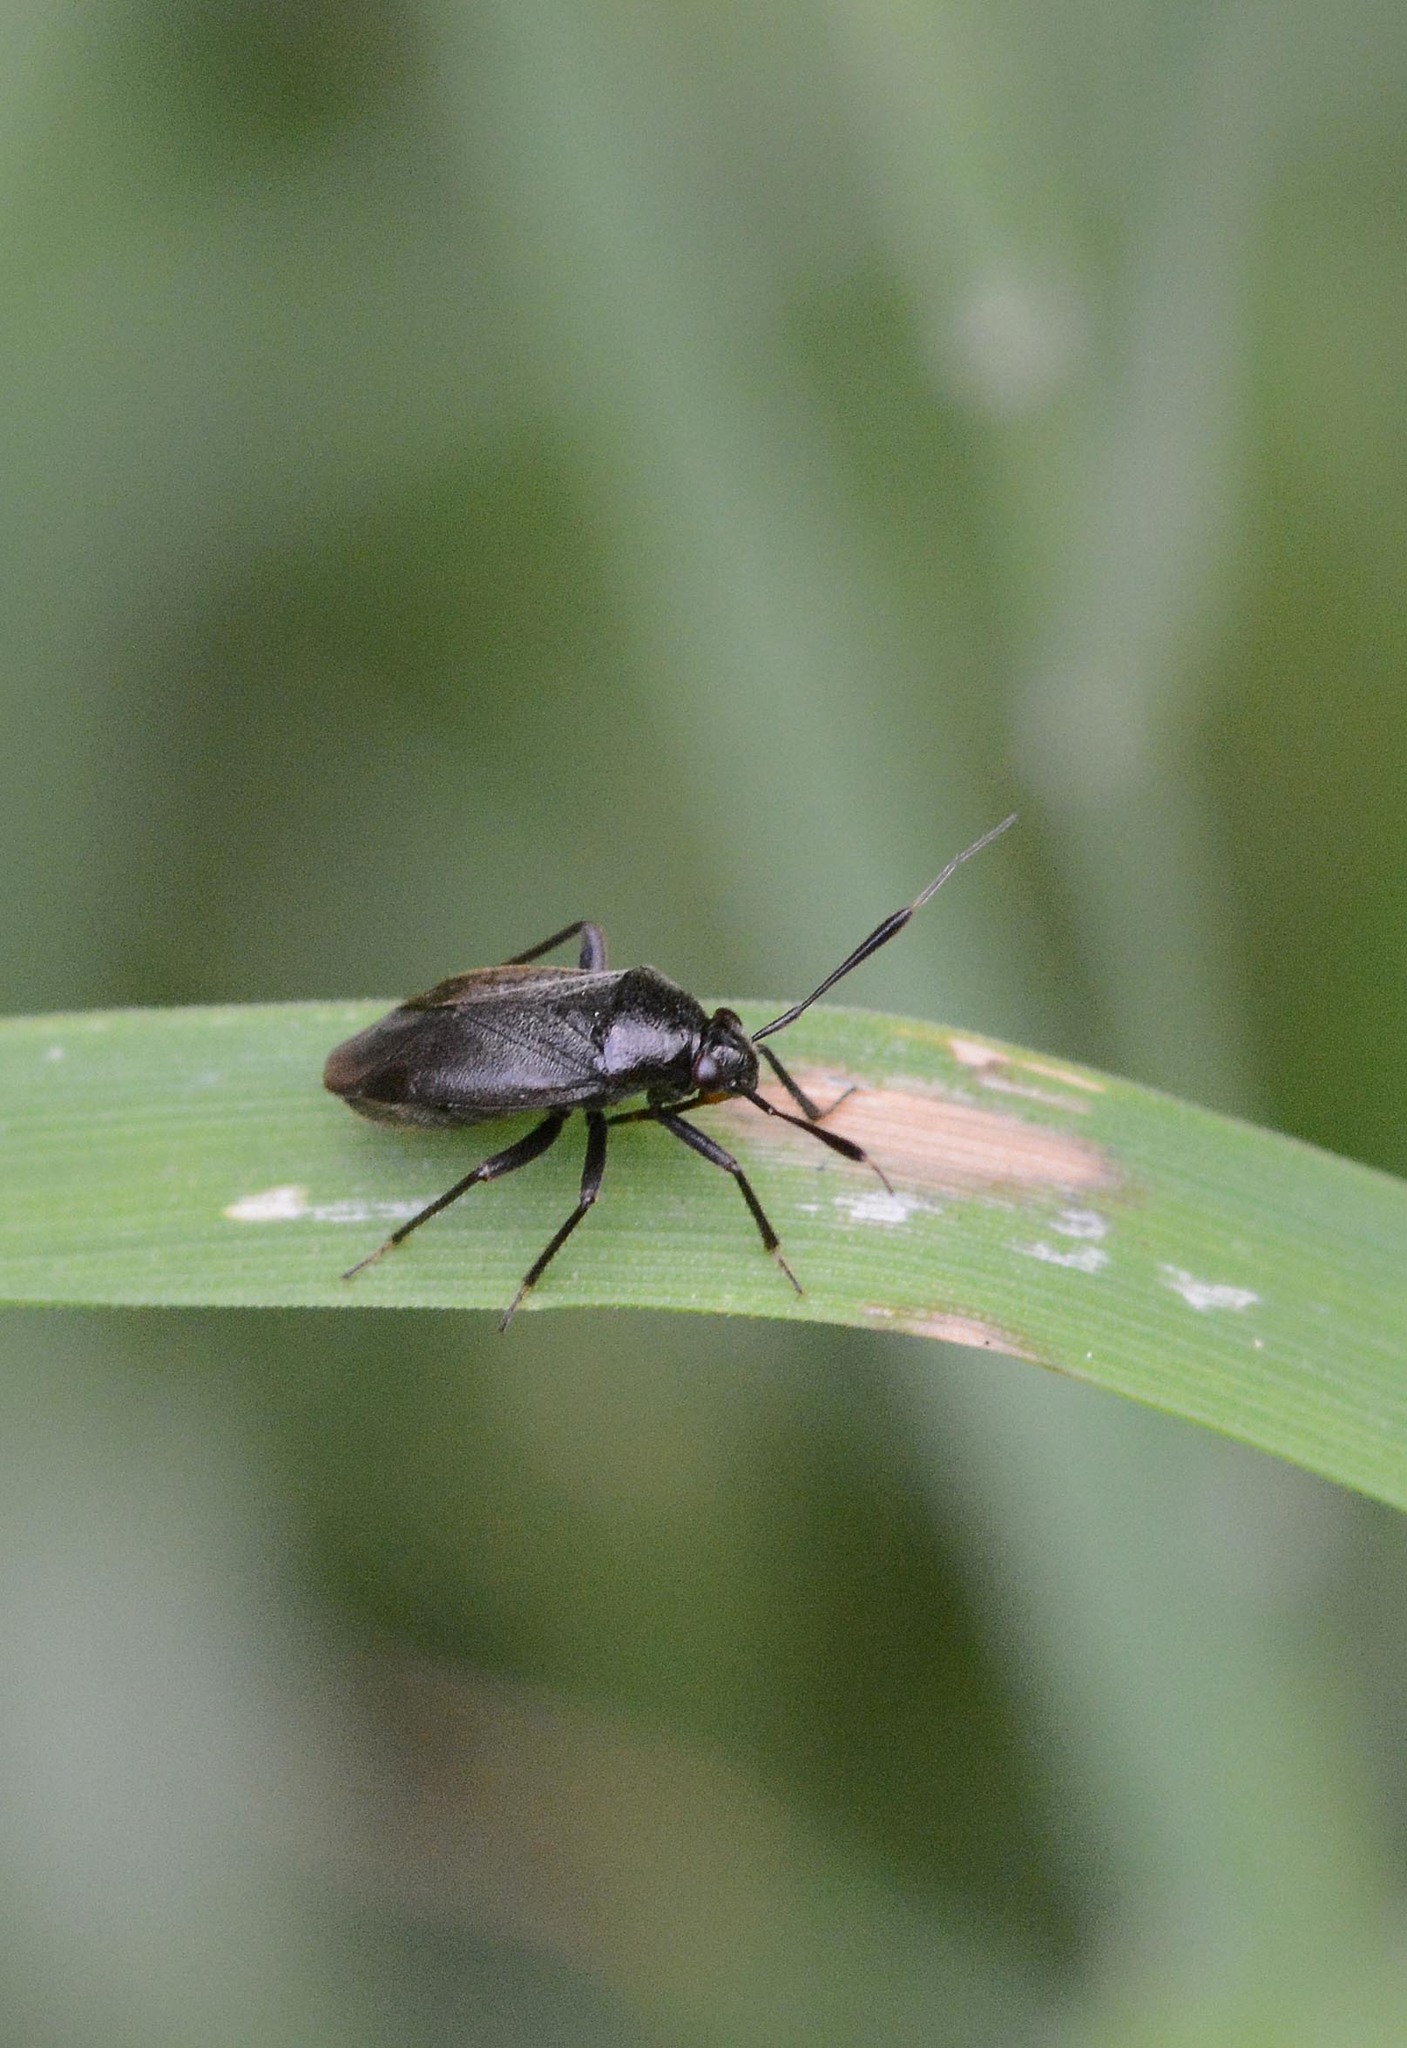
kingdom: Animalia
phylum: Arthropoda
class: Insecta
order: Hemiptera
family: Miridae
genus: Capsus
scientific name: Capsus ater
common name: Black plant bug
